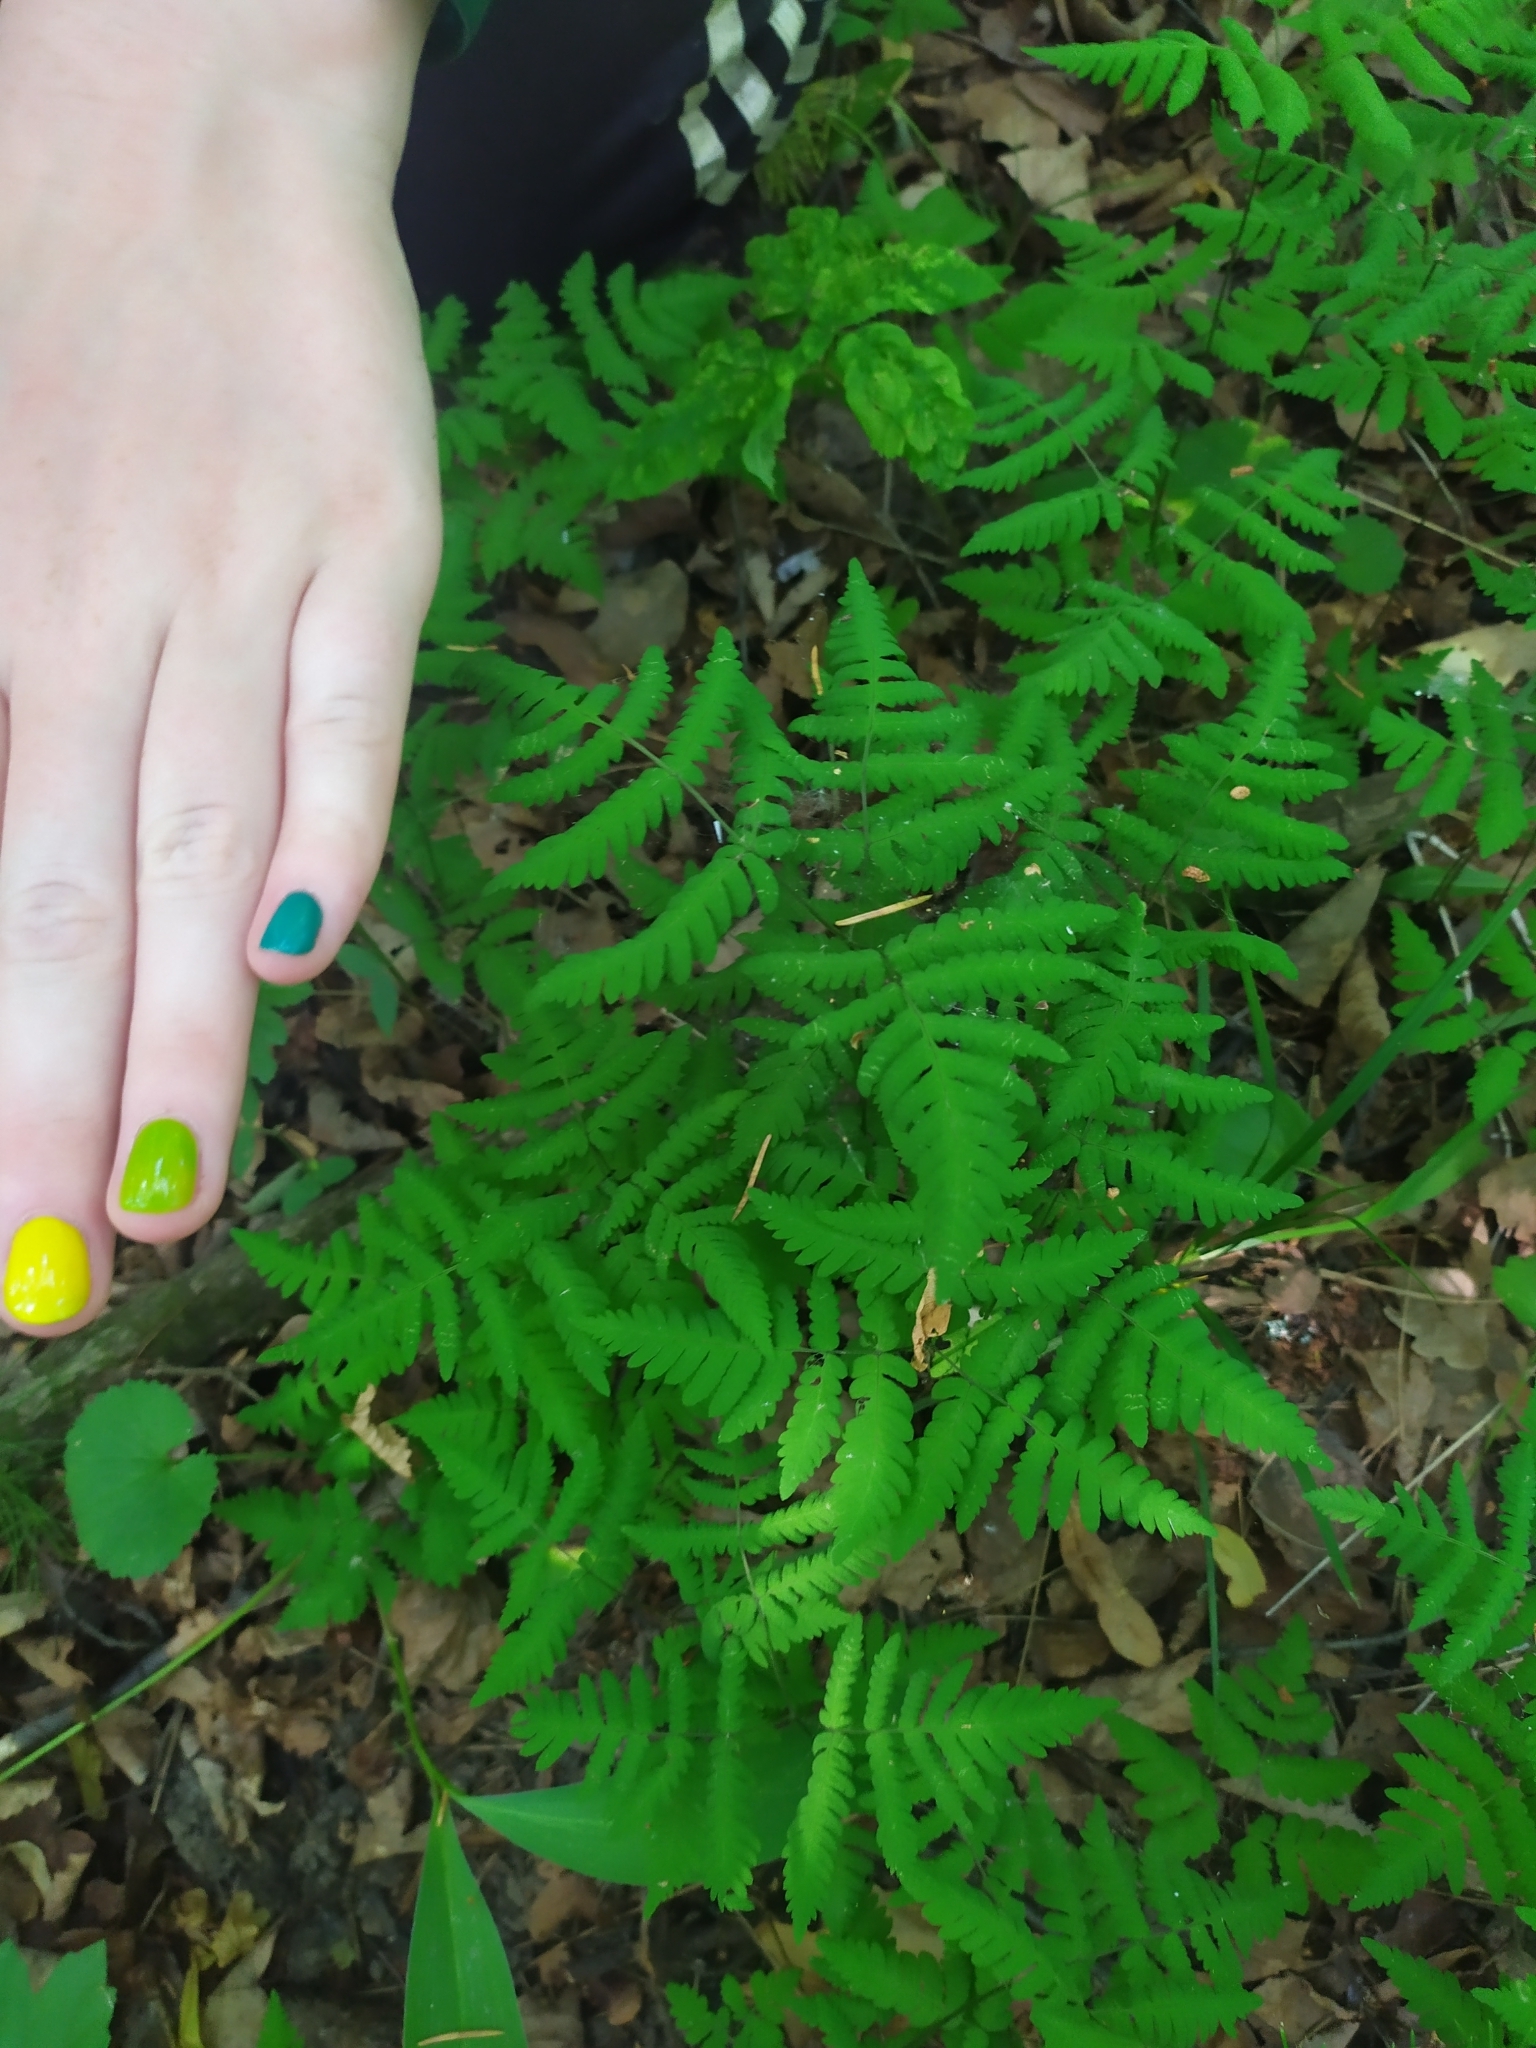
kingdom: Plantae
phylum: Tracheophyta
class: Polypodiopsida
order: Polypodiales
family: Cystopteridaceae
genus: Gymnocarpium
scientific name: Gymnocarpium dryopteris
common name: Oak fern
